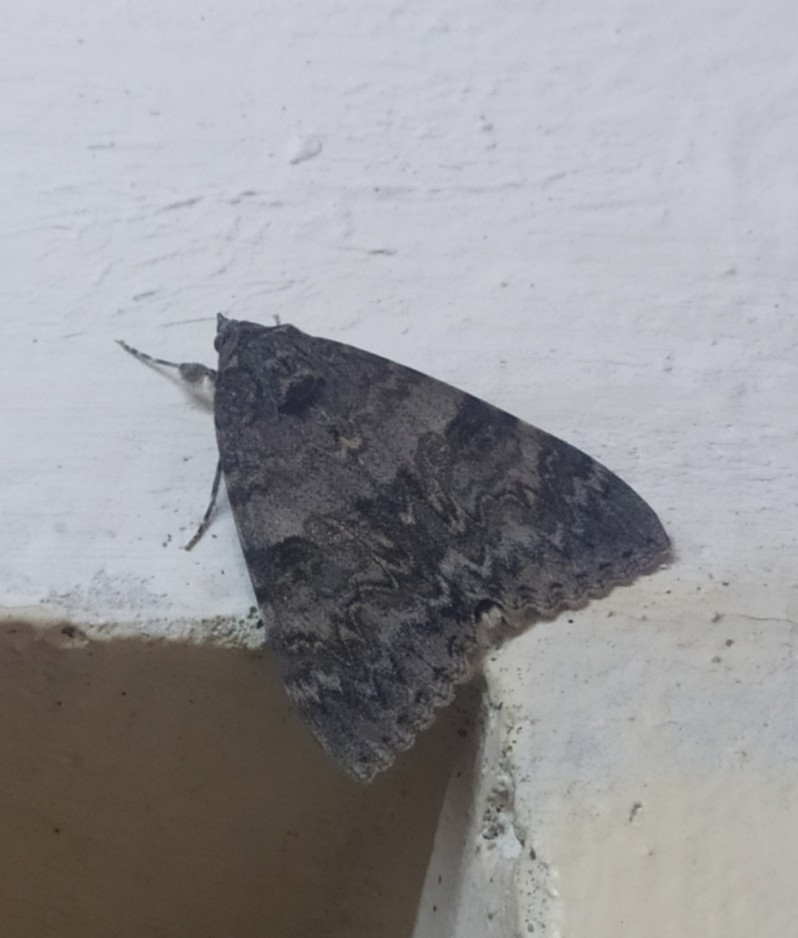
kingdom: Animalia
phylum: Arthropoda
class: Insecta
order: Lepidoptera
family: Erebidae
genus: Catocala
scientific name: Catocala nupta
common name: Red underwing
